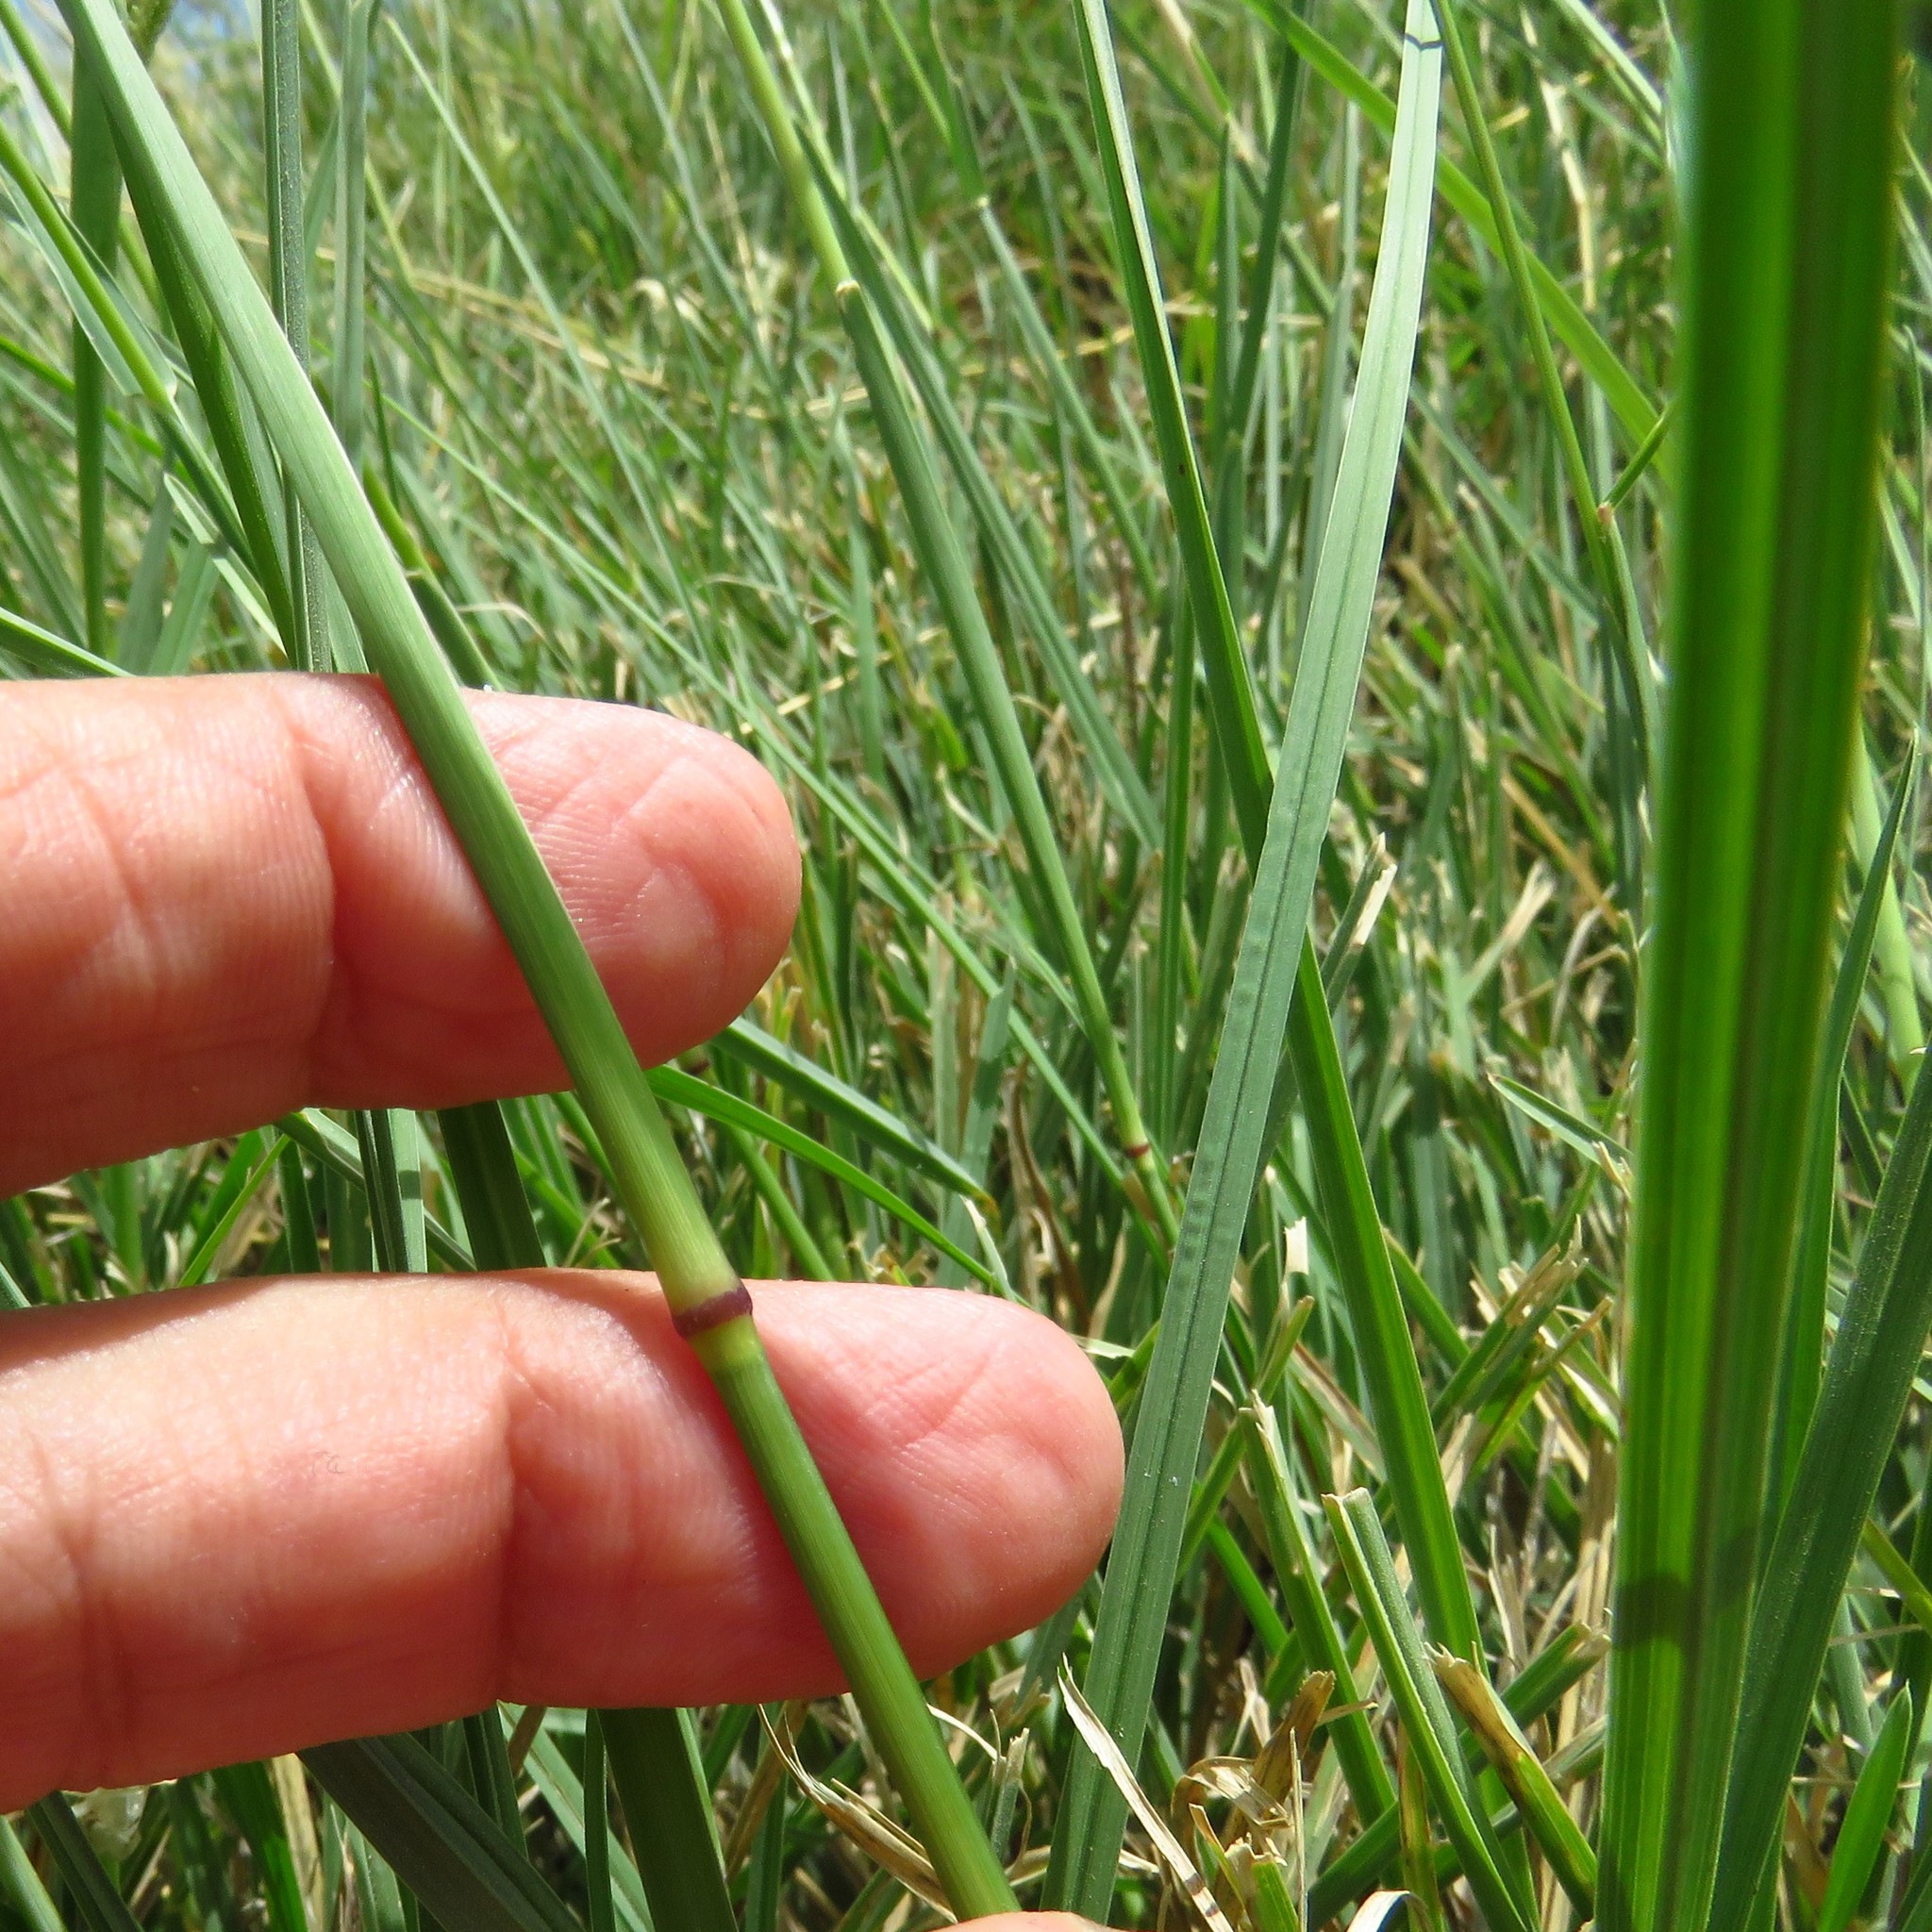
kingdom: Plantae
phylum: Tracheophyta
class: Liliopsida
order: Poales
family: Poaceae
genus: Chloris
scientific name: Chloris cucullata
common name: Hooded windmill grass
